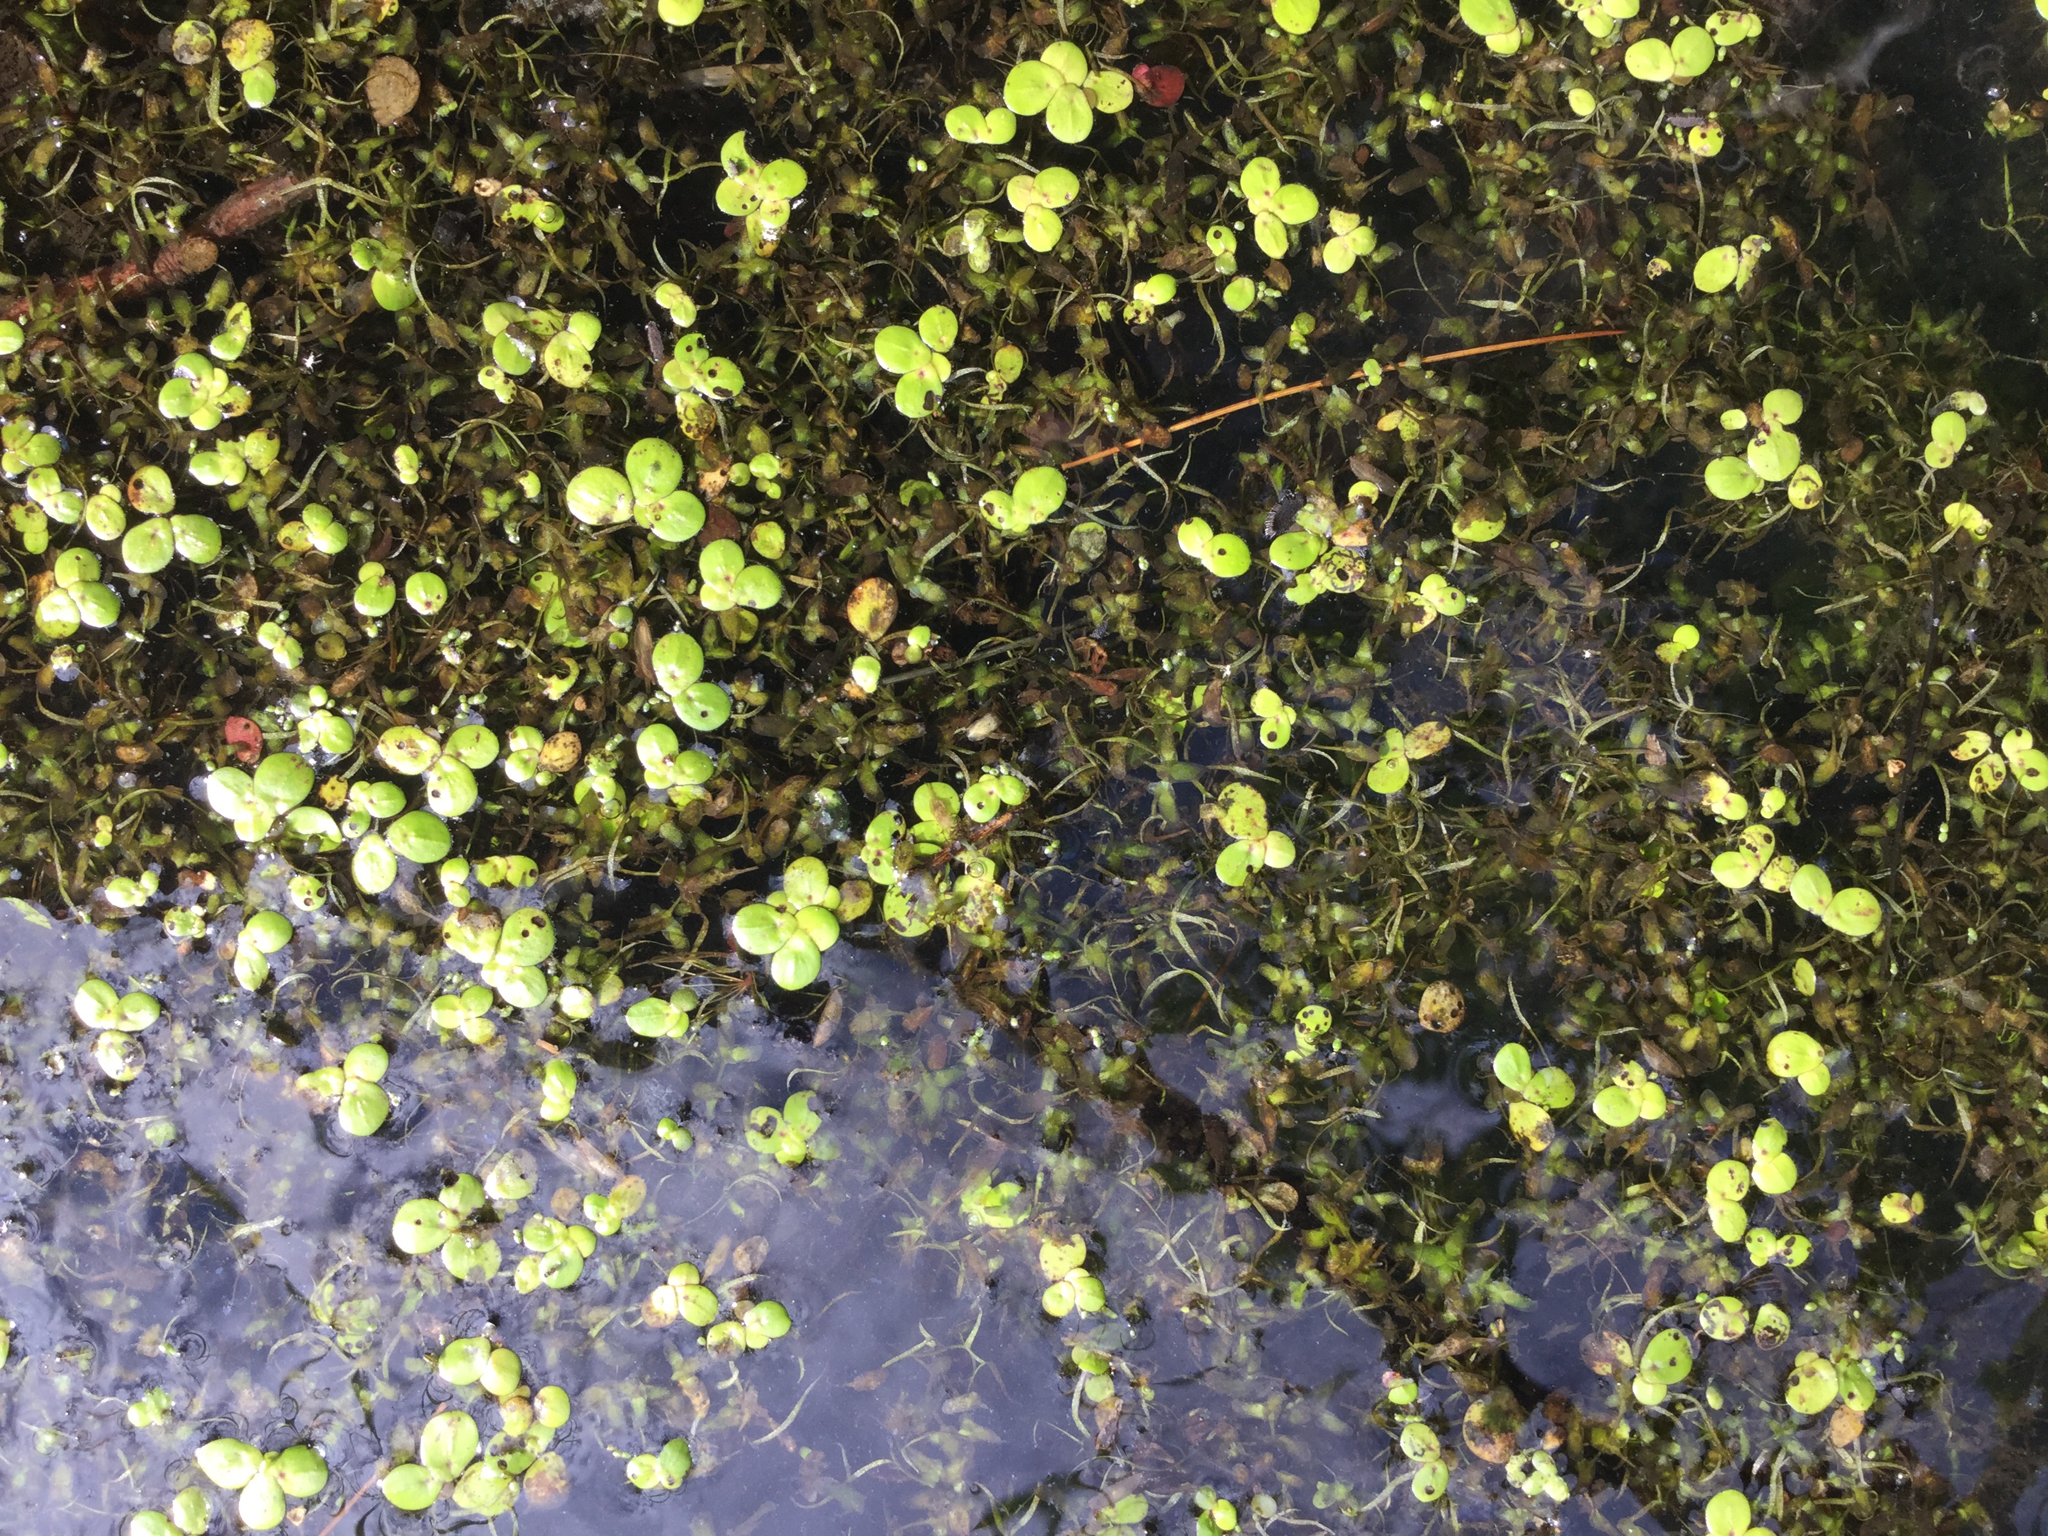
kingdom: Plantae
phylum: Tracheophyta
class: Liliopsida
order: Alismatales
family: Araceae
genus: Wolffiella
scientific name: Wolffiella gladiata
